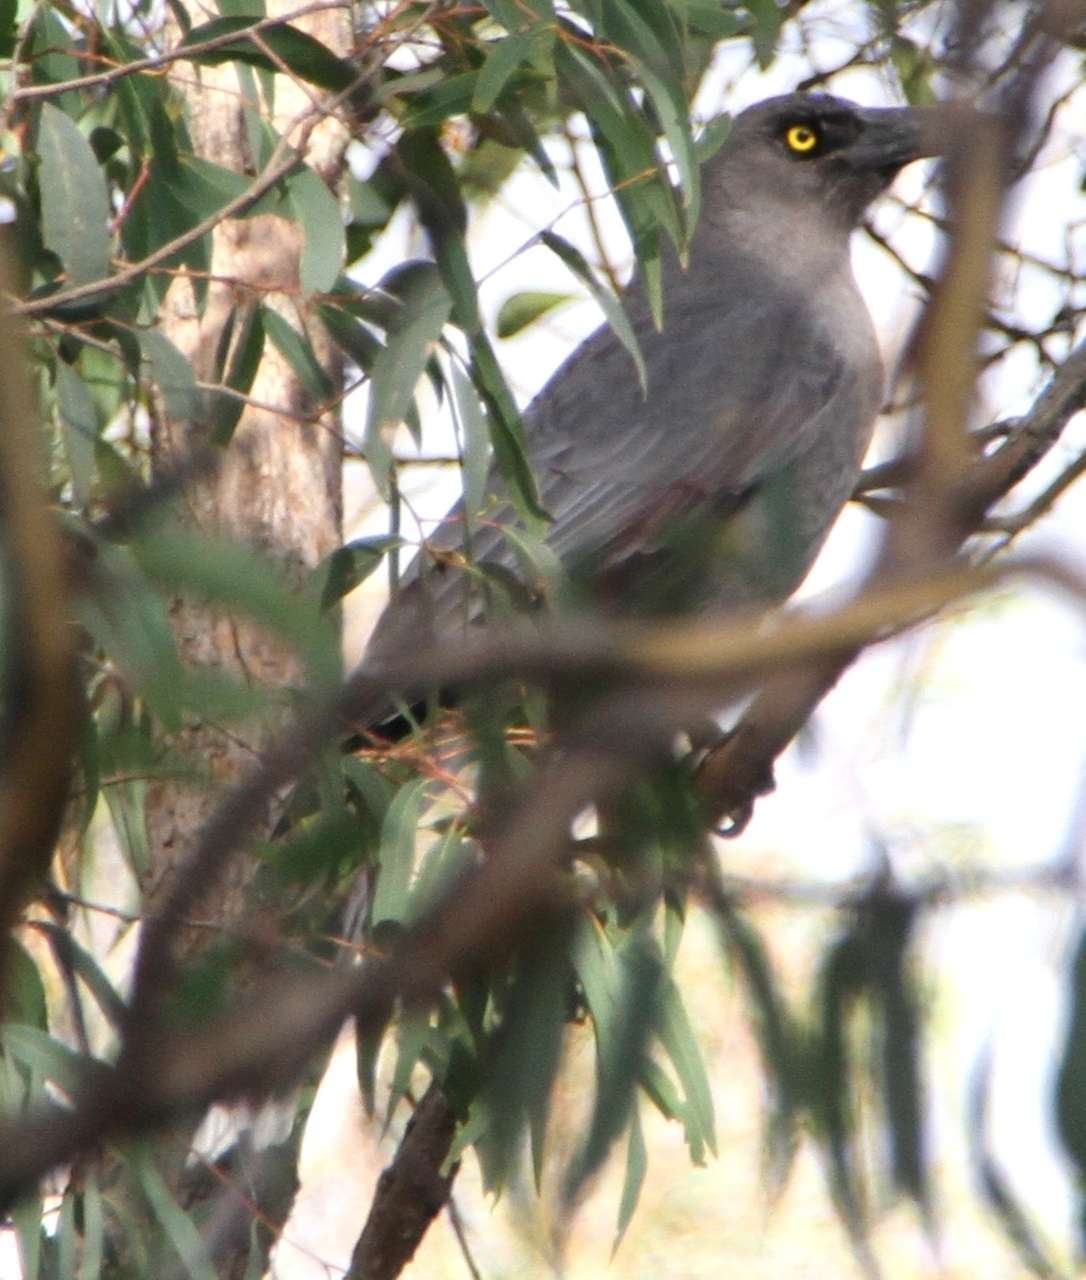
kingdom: Animalia
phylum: Chordata
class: Aves
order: Passeriformes
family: Cracticidae
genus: Strepera
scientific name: Strepera versicolor
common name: Grey currawong
